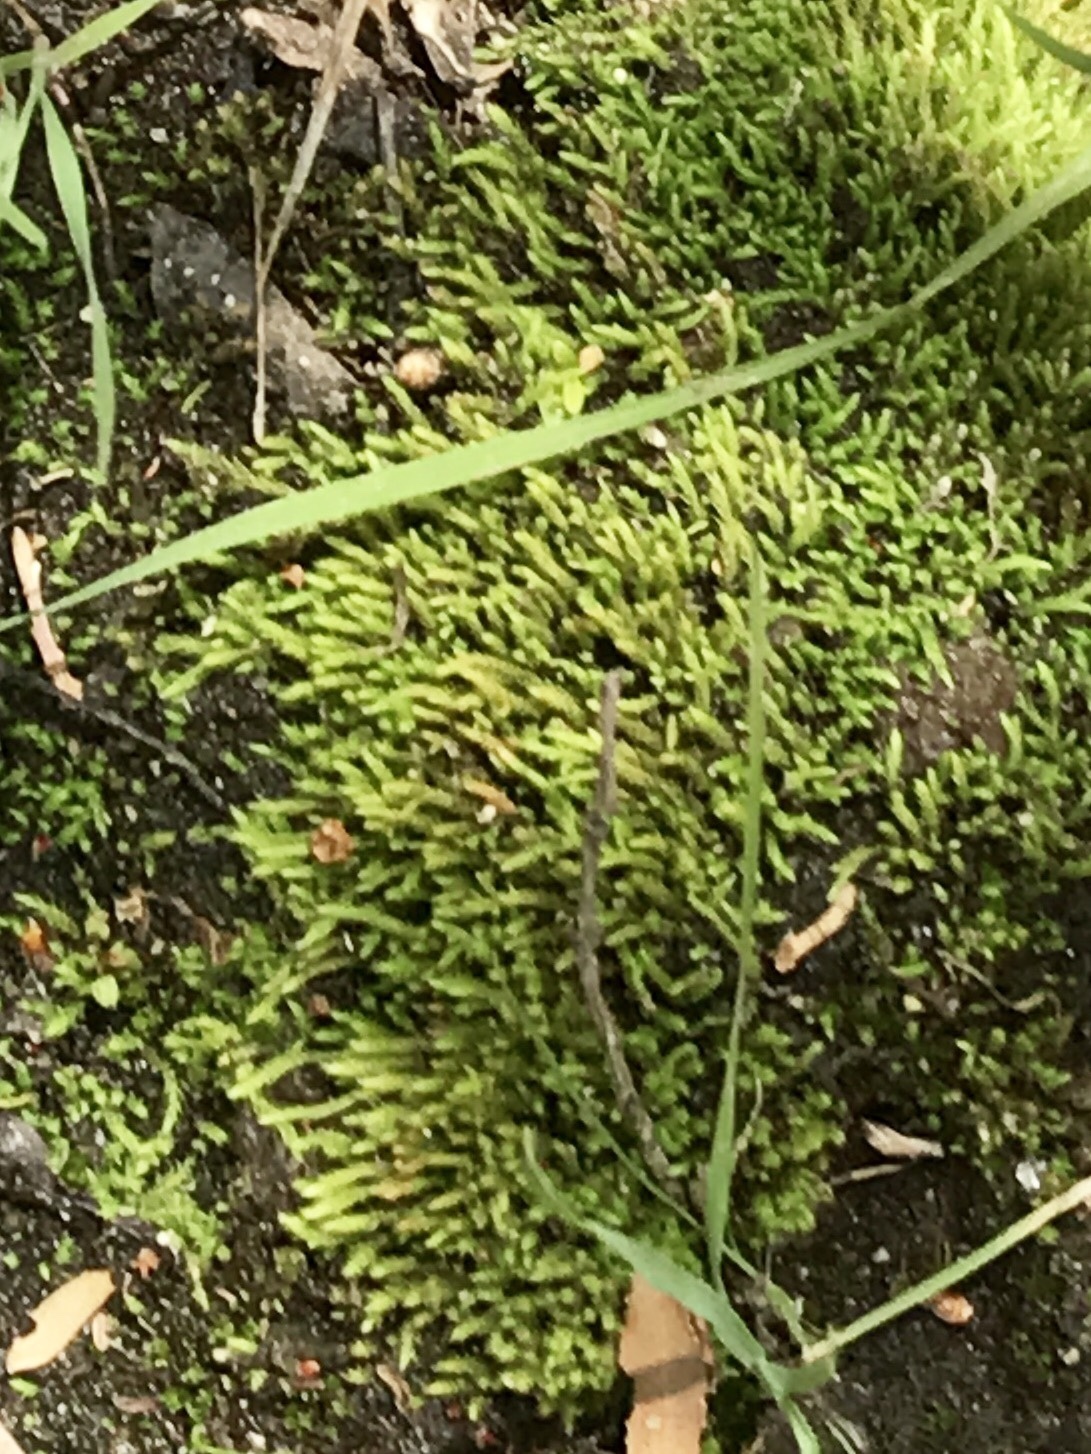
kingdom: Plantae
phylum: Tracheophyta
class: Lycopodiopsida
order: Selaginellales
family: Selaginellaceae
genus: Selaginella
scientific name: Selaginella rupincola
